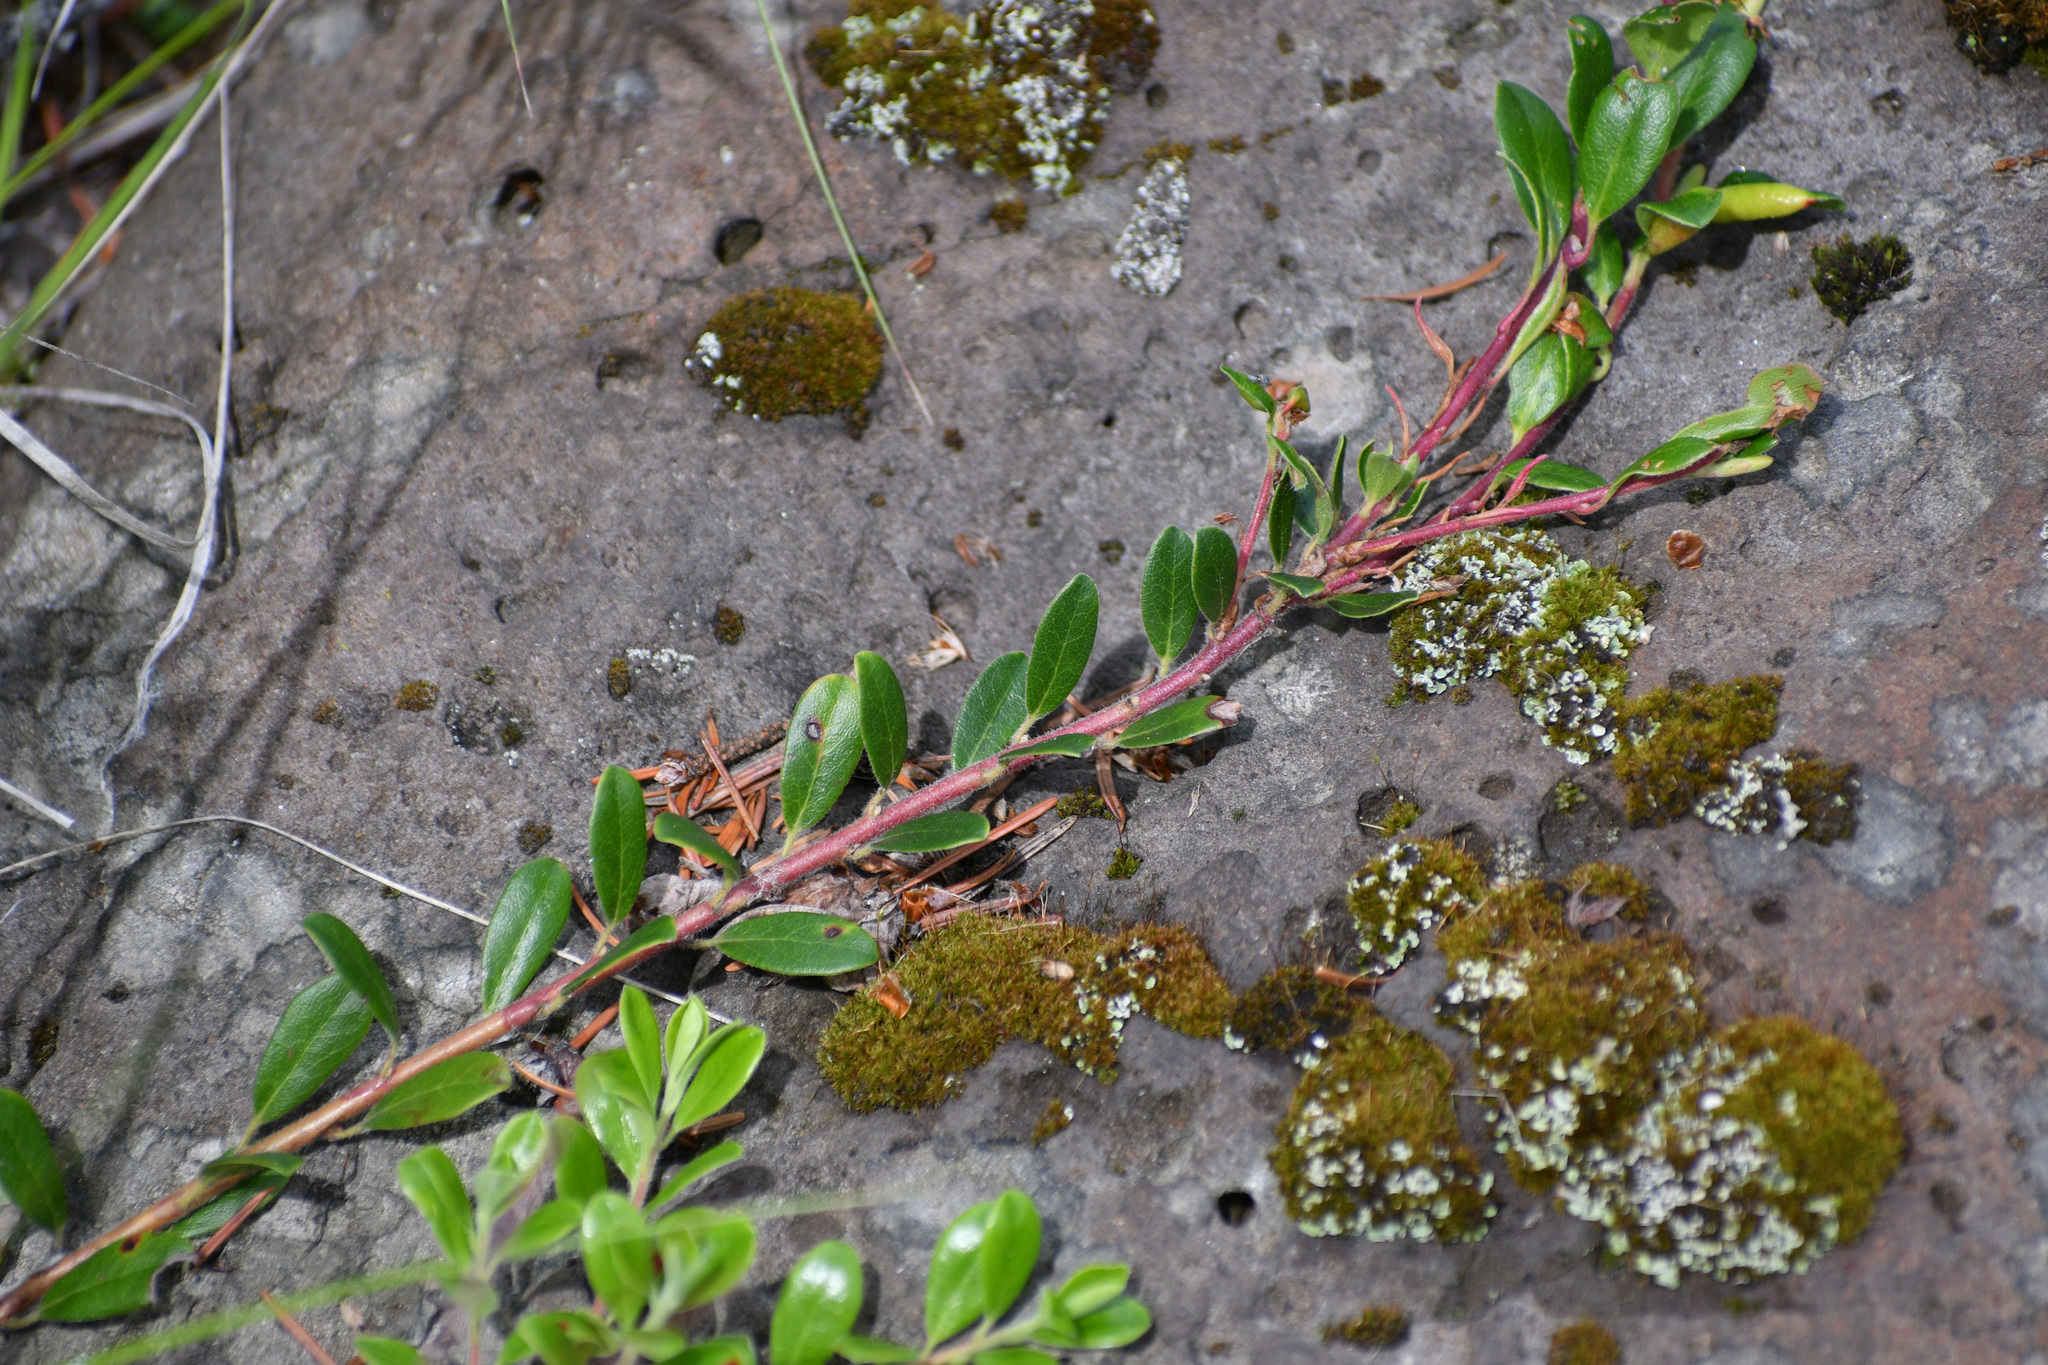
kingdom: Plantae
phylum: Tracheophyta
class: Magnoliopsida
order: Ericales
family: Ericaceae
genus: Arctostaphylos
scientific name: Arctostaphylos uva-ursi
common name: Bearberry
